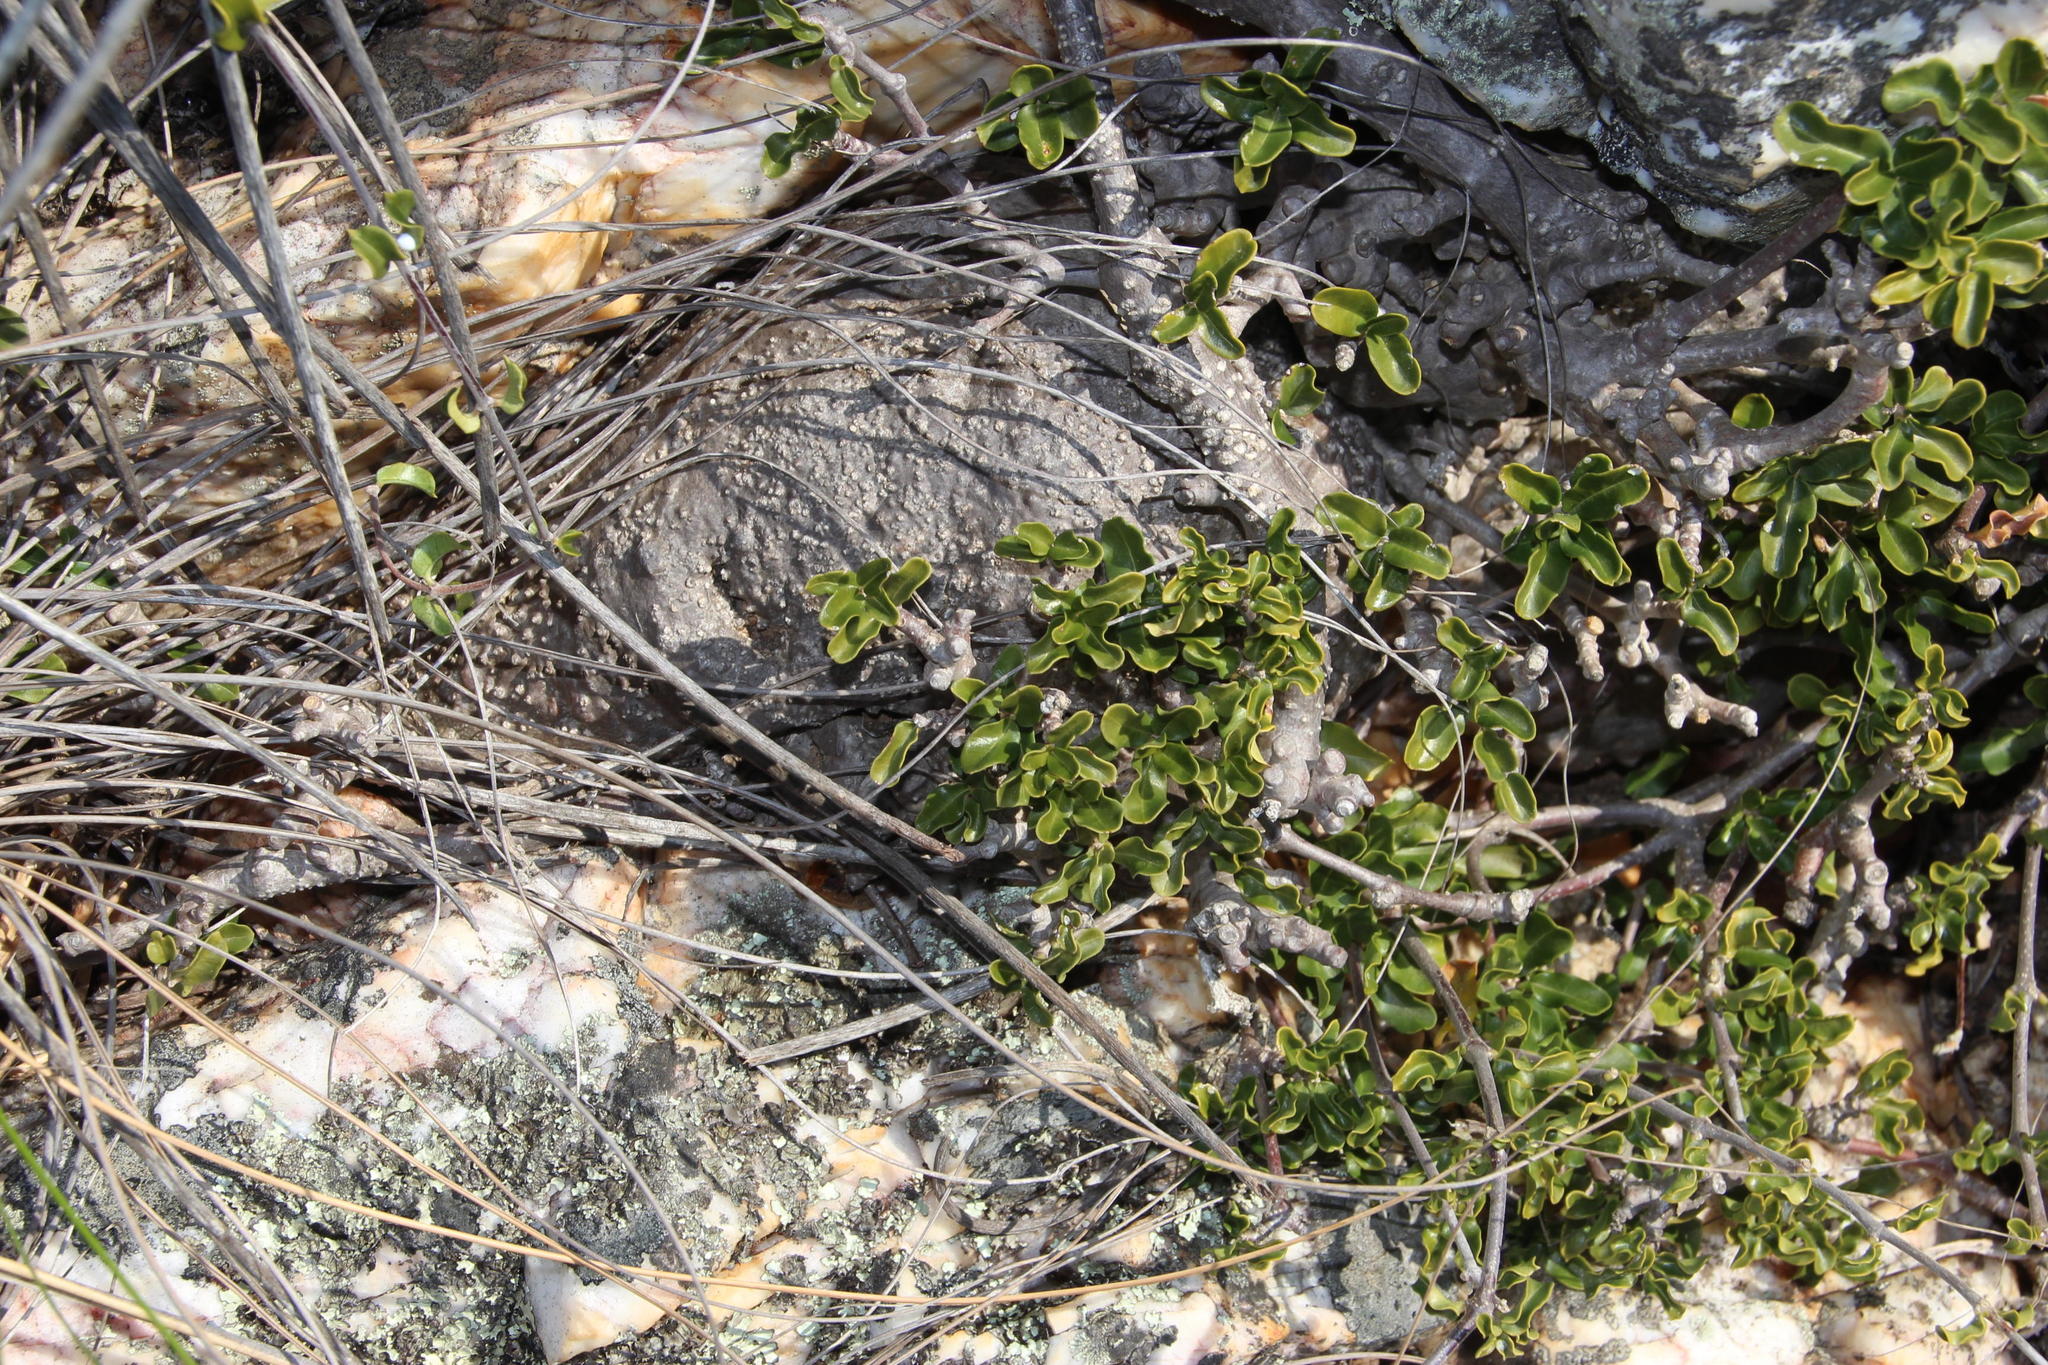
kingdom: Plantae
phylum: Tracheophyta
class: Magnoliopsida
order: Gentianales
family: Apocynaceae
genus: Fockea
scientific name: Fockea edulis
